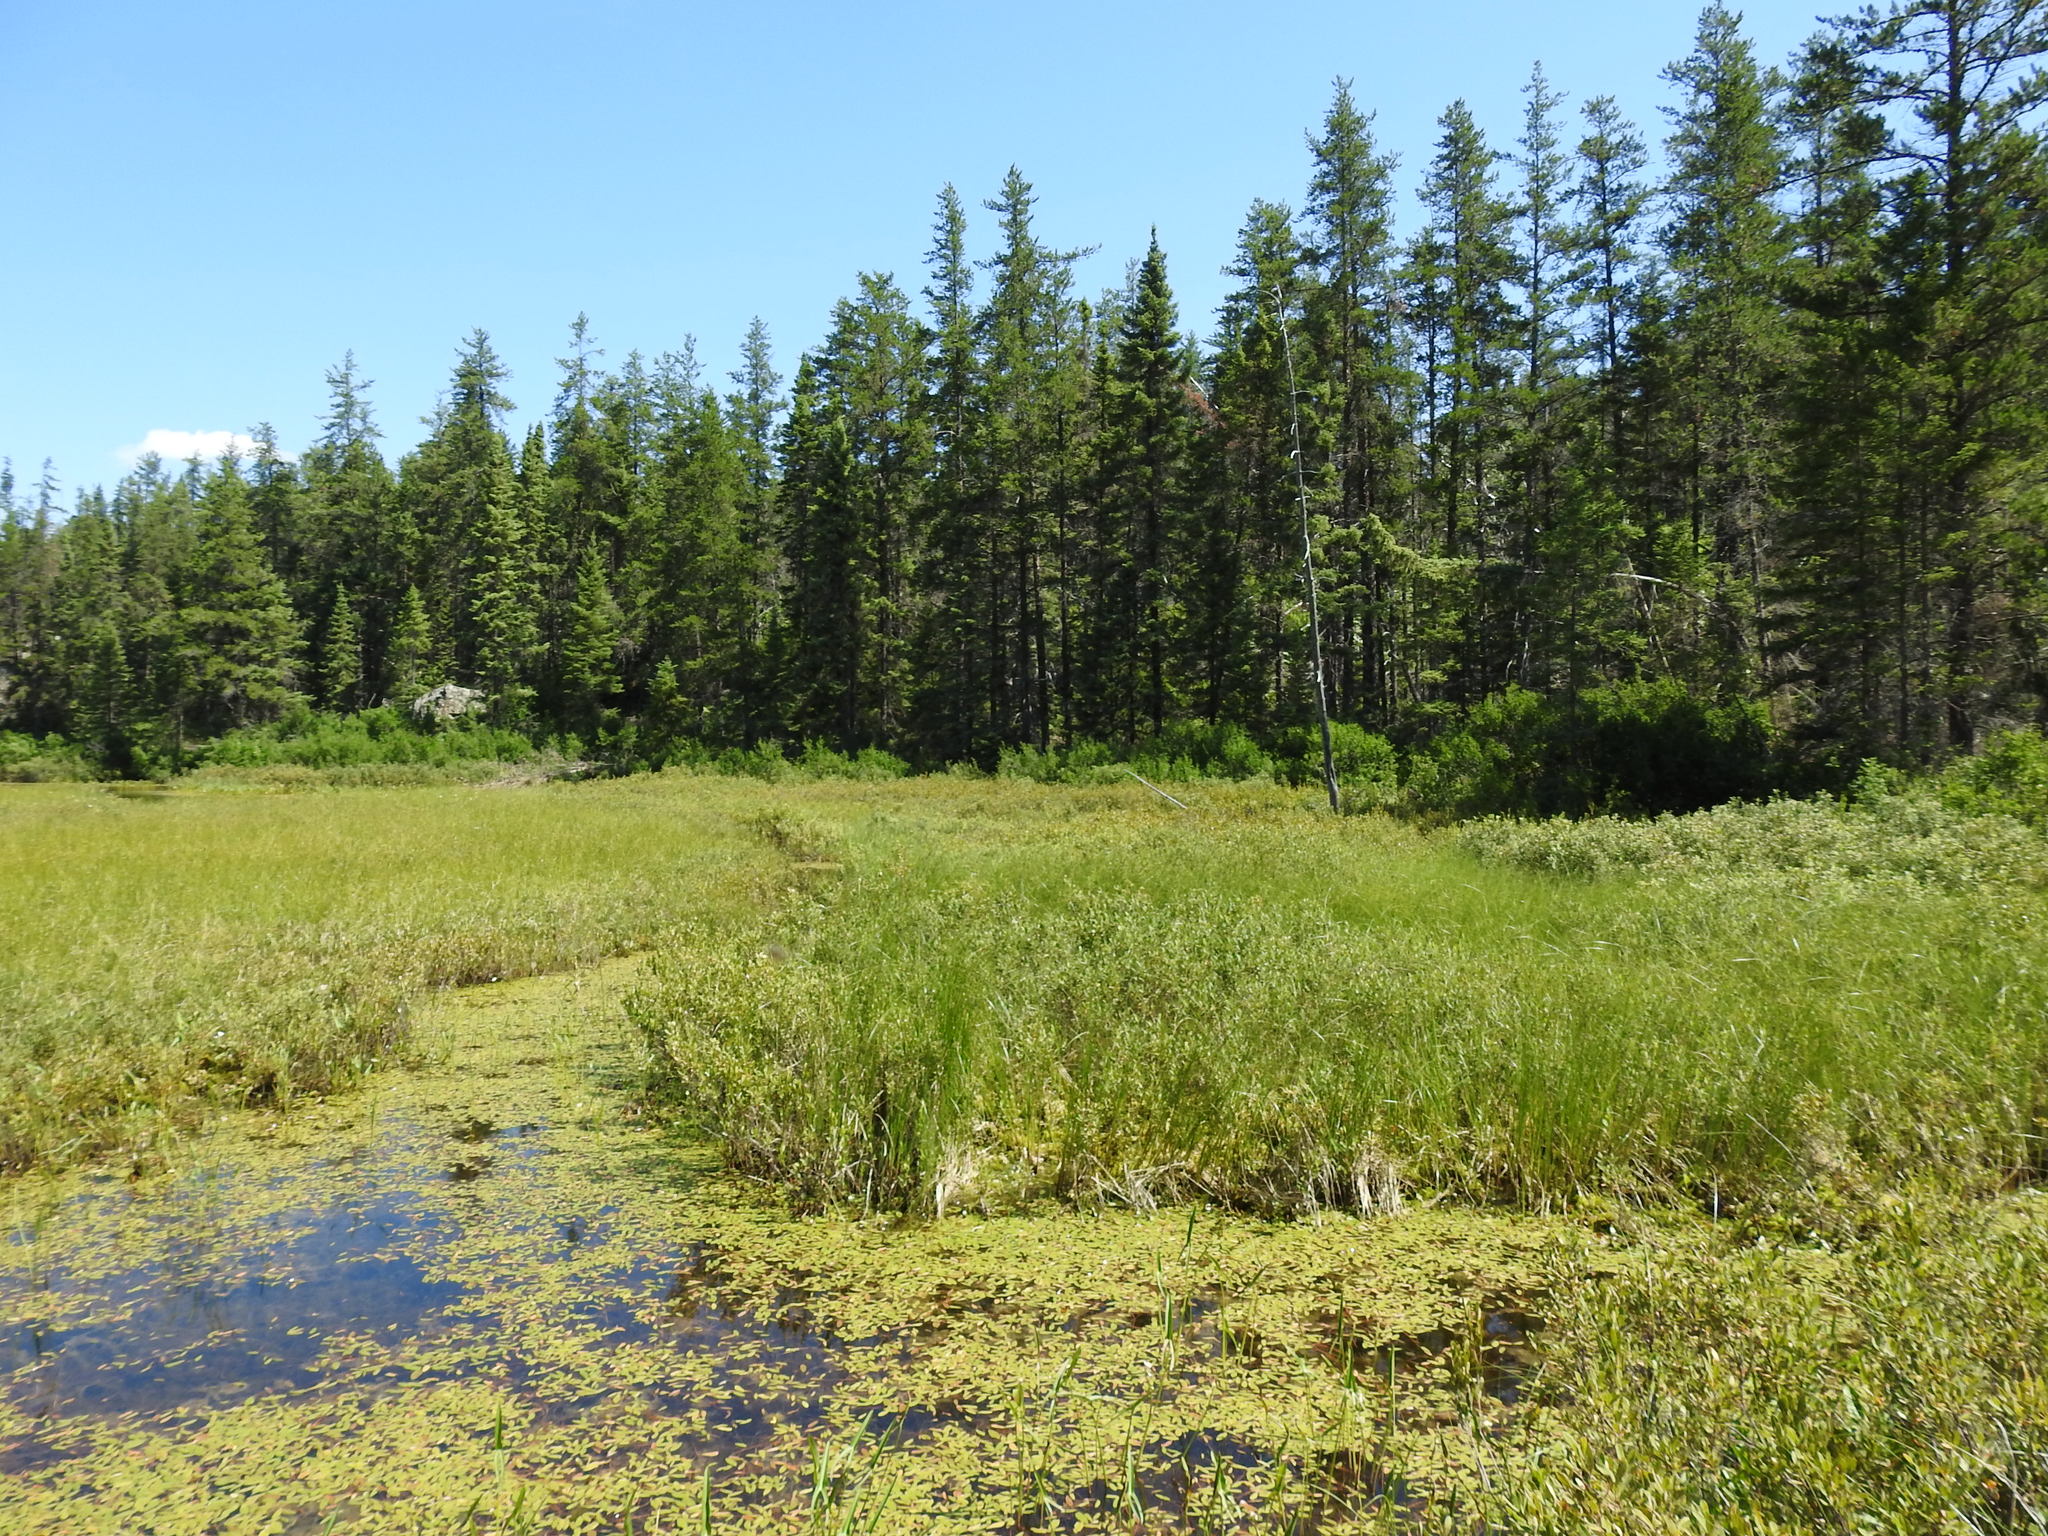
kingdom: Plantae
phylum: Tracheophyta
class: Pinopsida
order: Pinales
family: Pinaceae
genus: Pinus
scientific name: Pinus banksiana
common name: Jack pine
